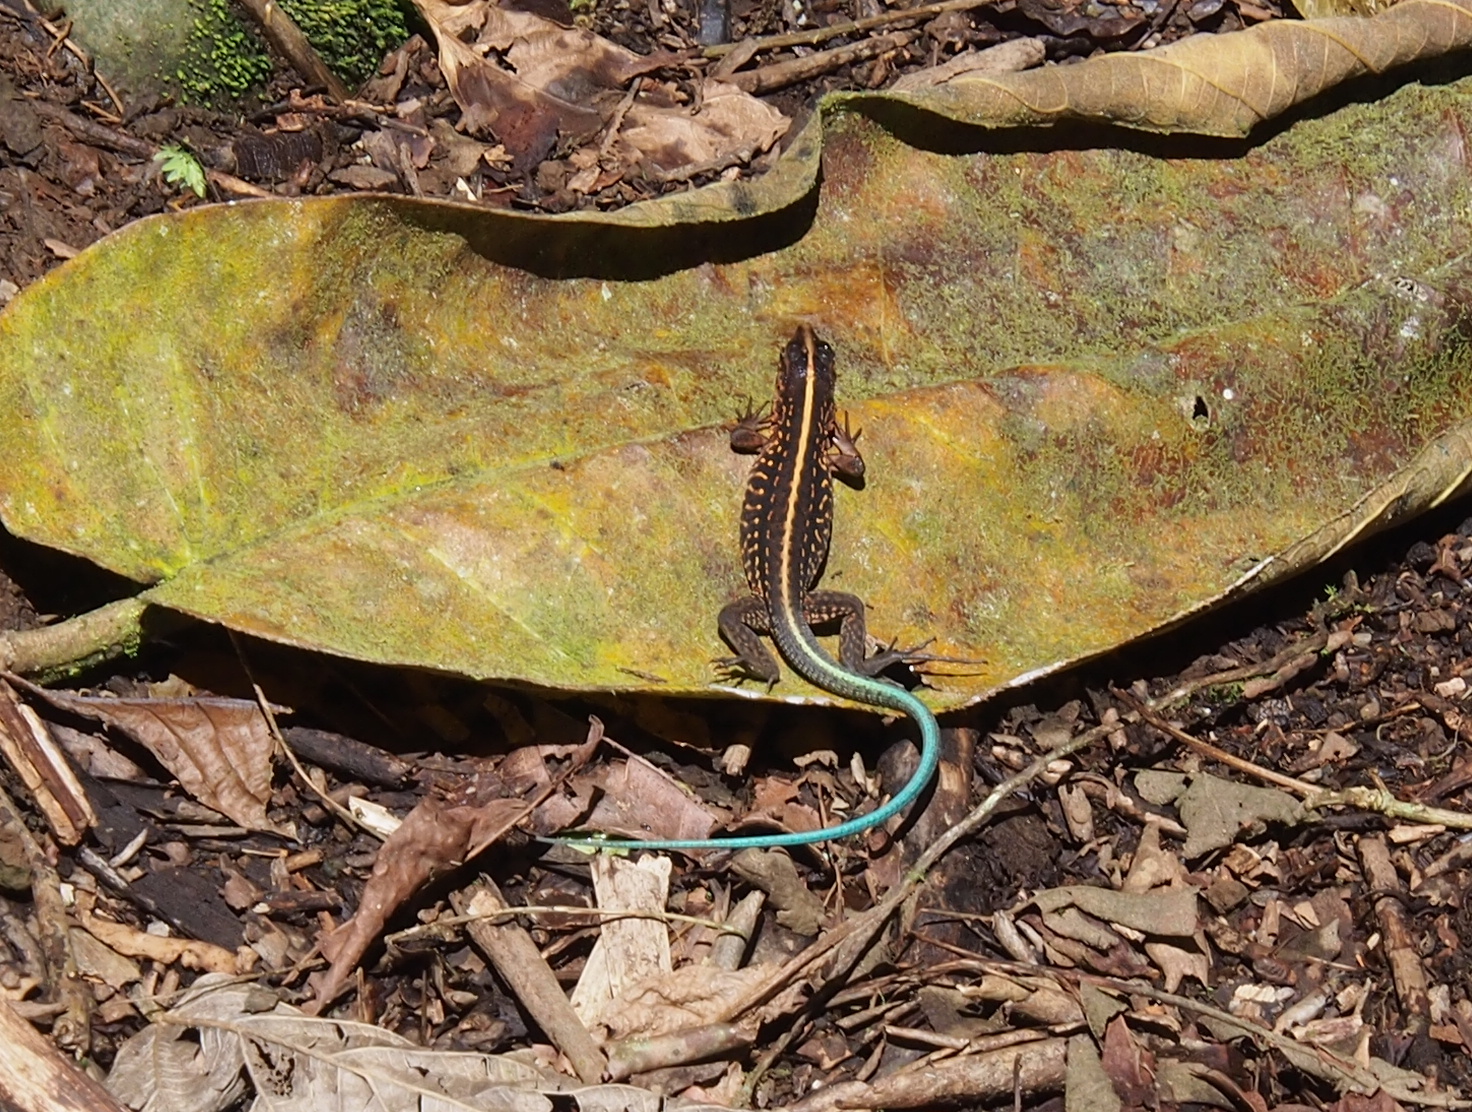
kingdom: Animalia
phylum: Chordata
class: Squamata
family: Teiidae
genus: Holcosus
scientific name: Holcosus festivus
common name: Middle american ameiva
